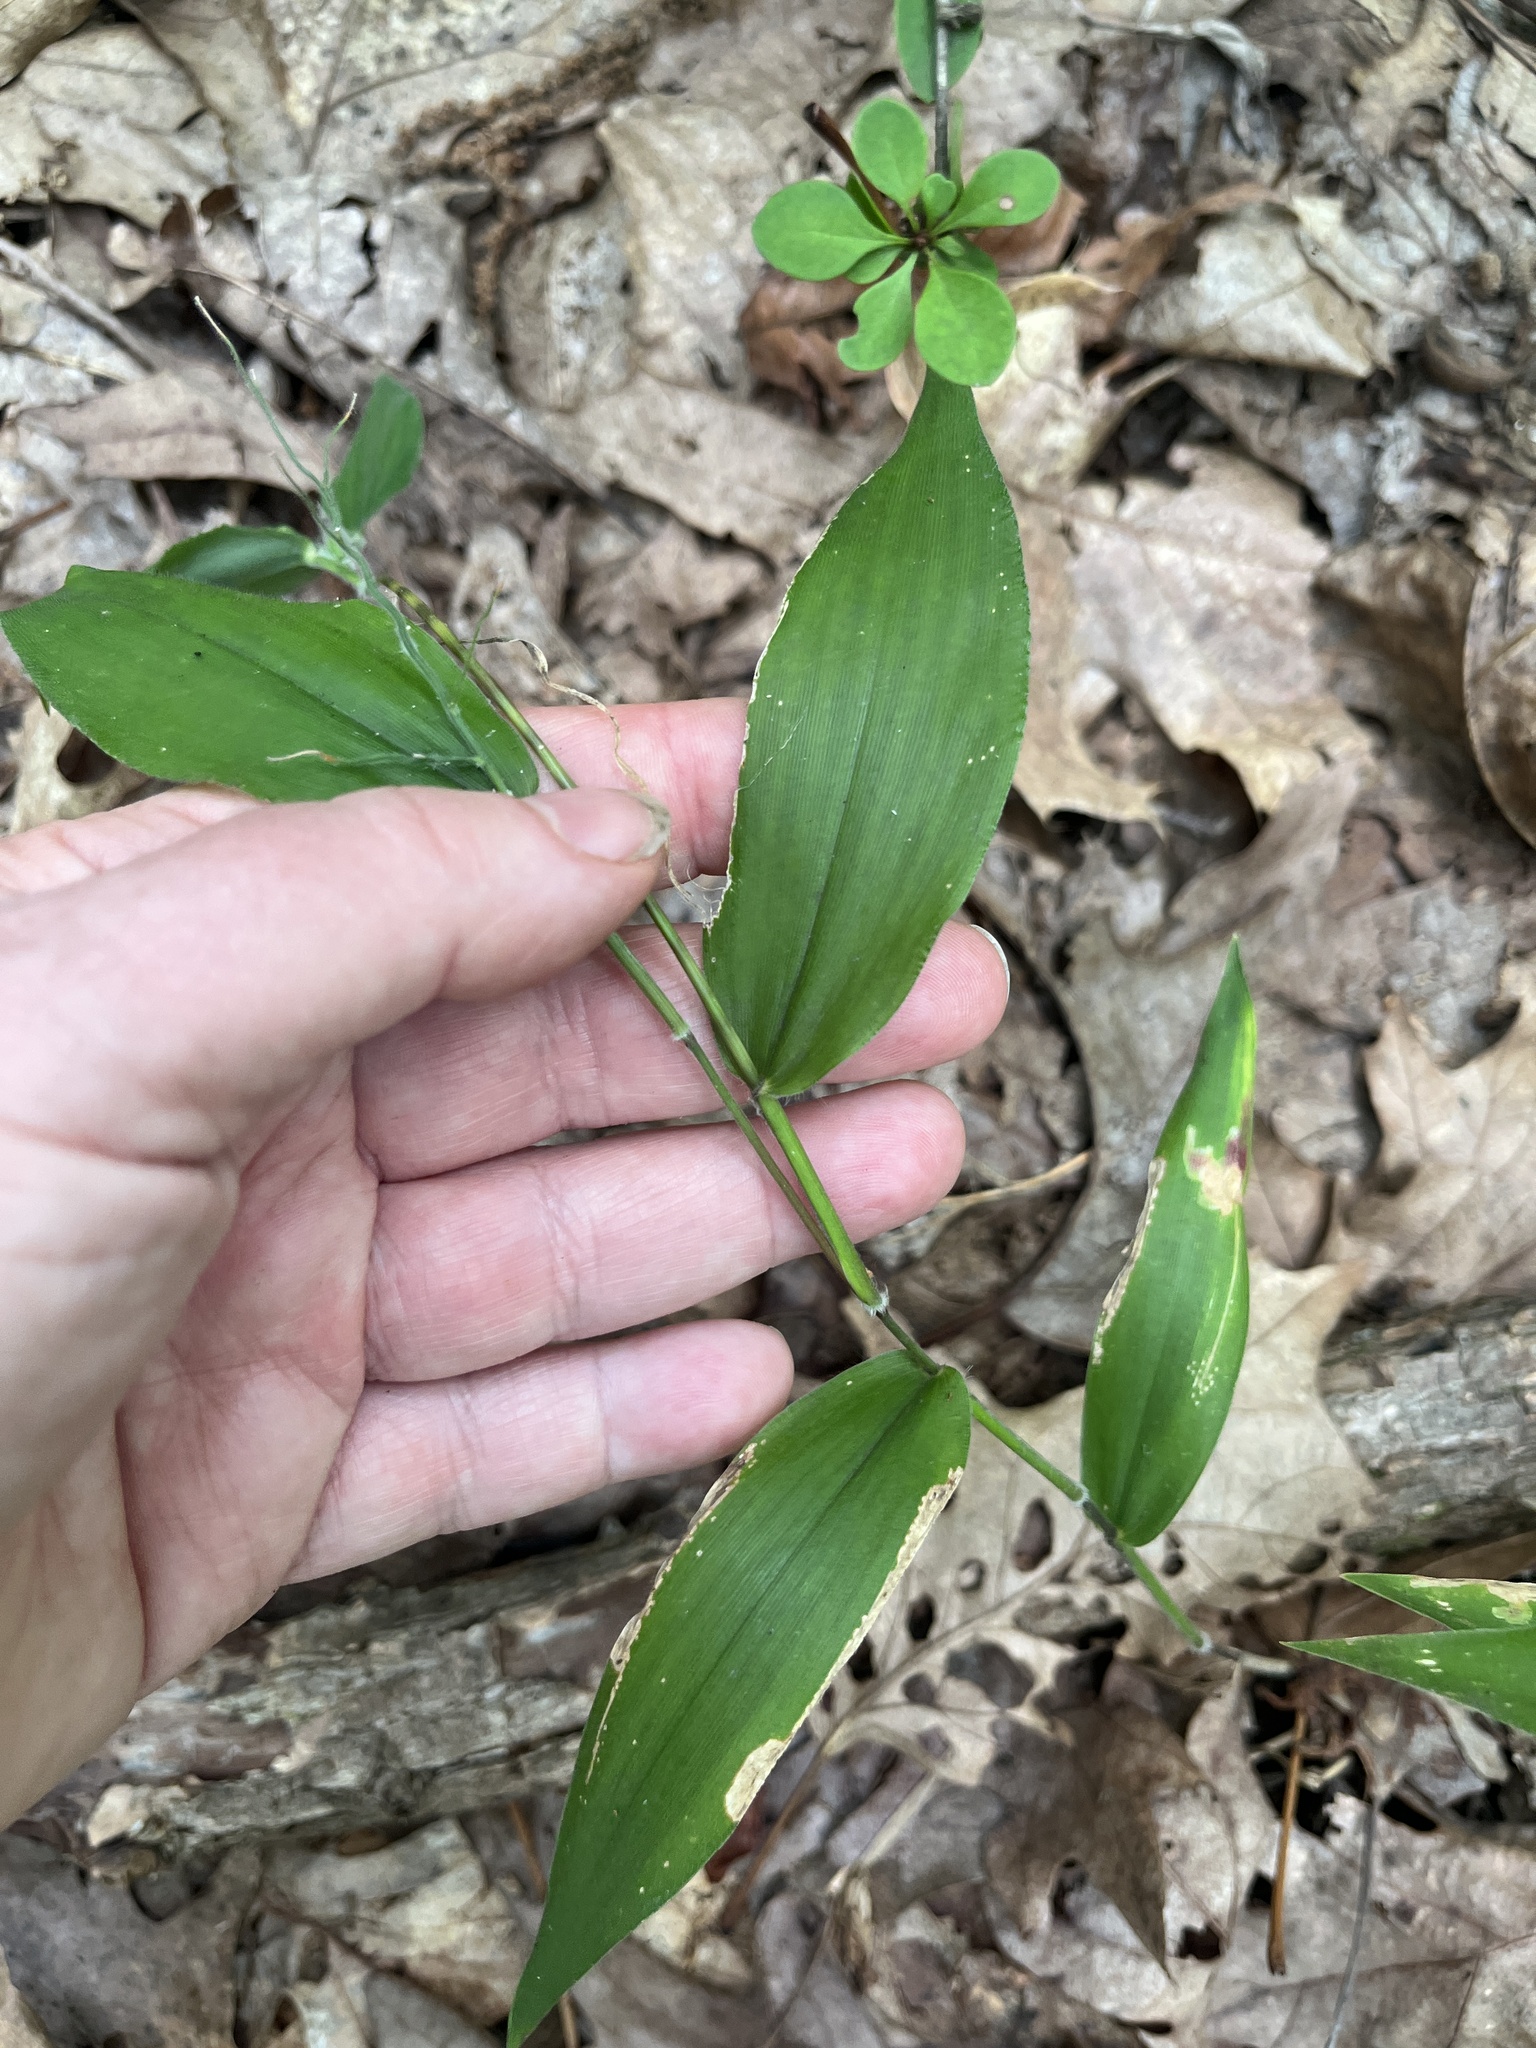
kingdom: Plantae
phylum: Tracheophyta
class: Liliopsida
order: Poales
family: Poaceae
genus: Dichanthelium
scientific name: Dichanthelium boscii
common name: Bosc's panic grass
